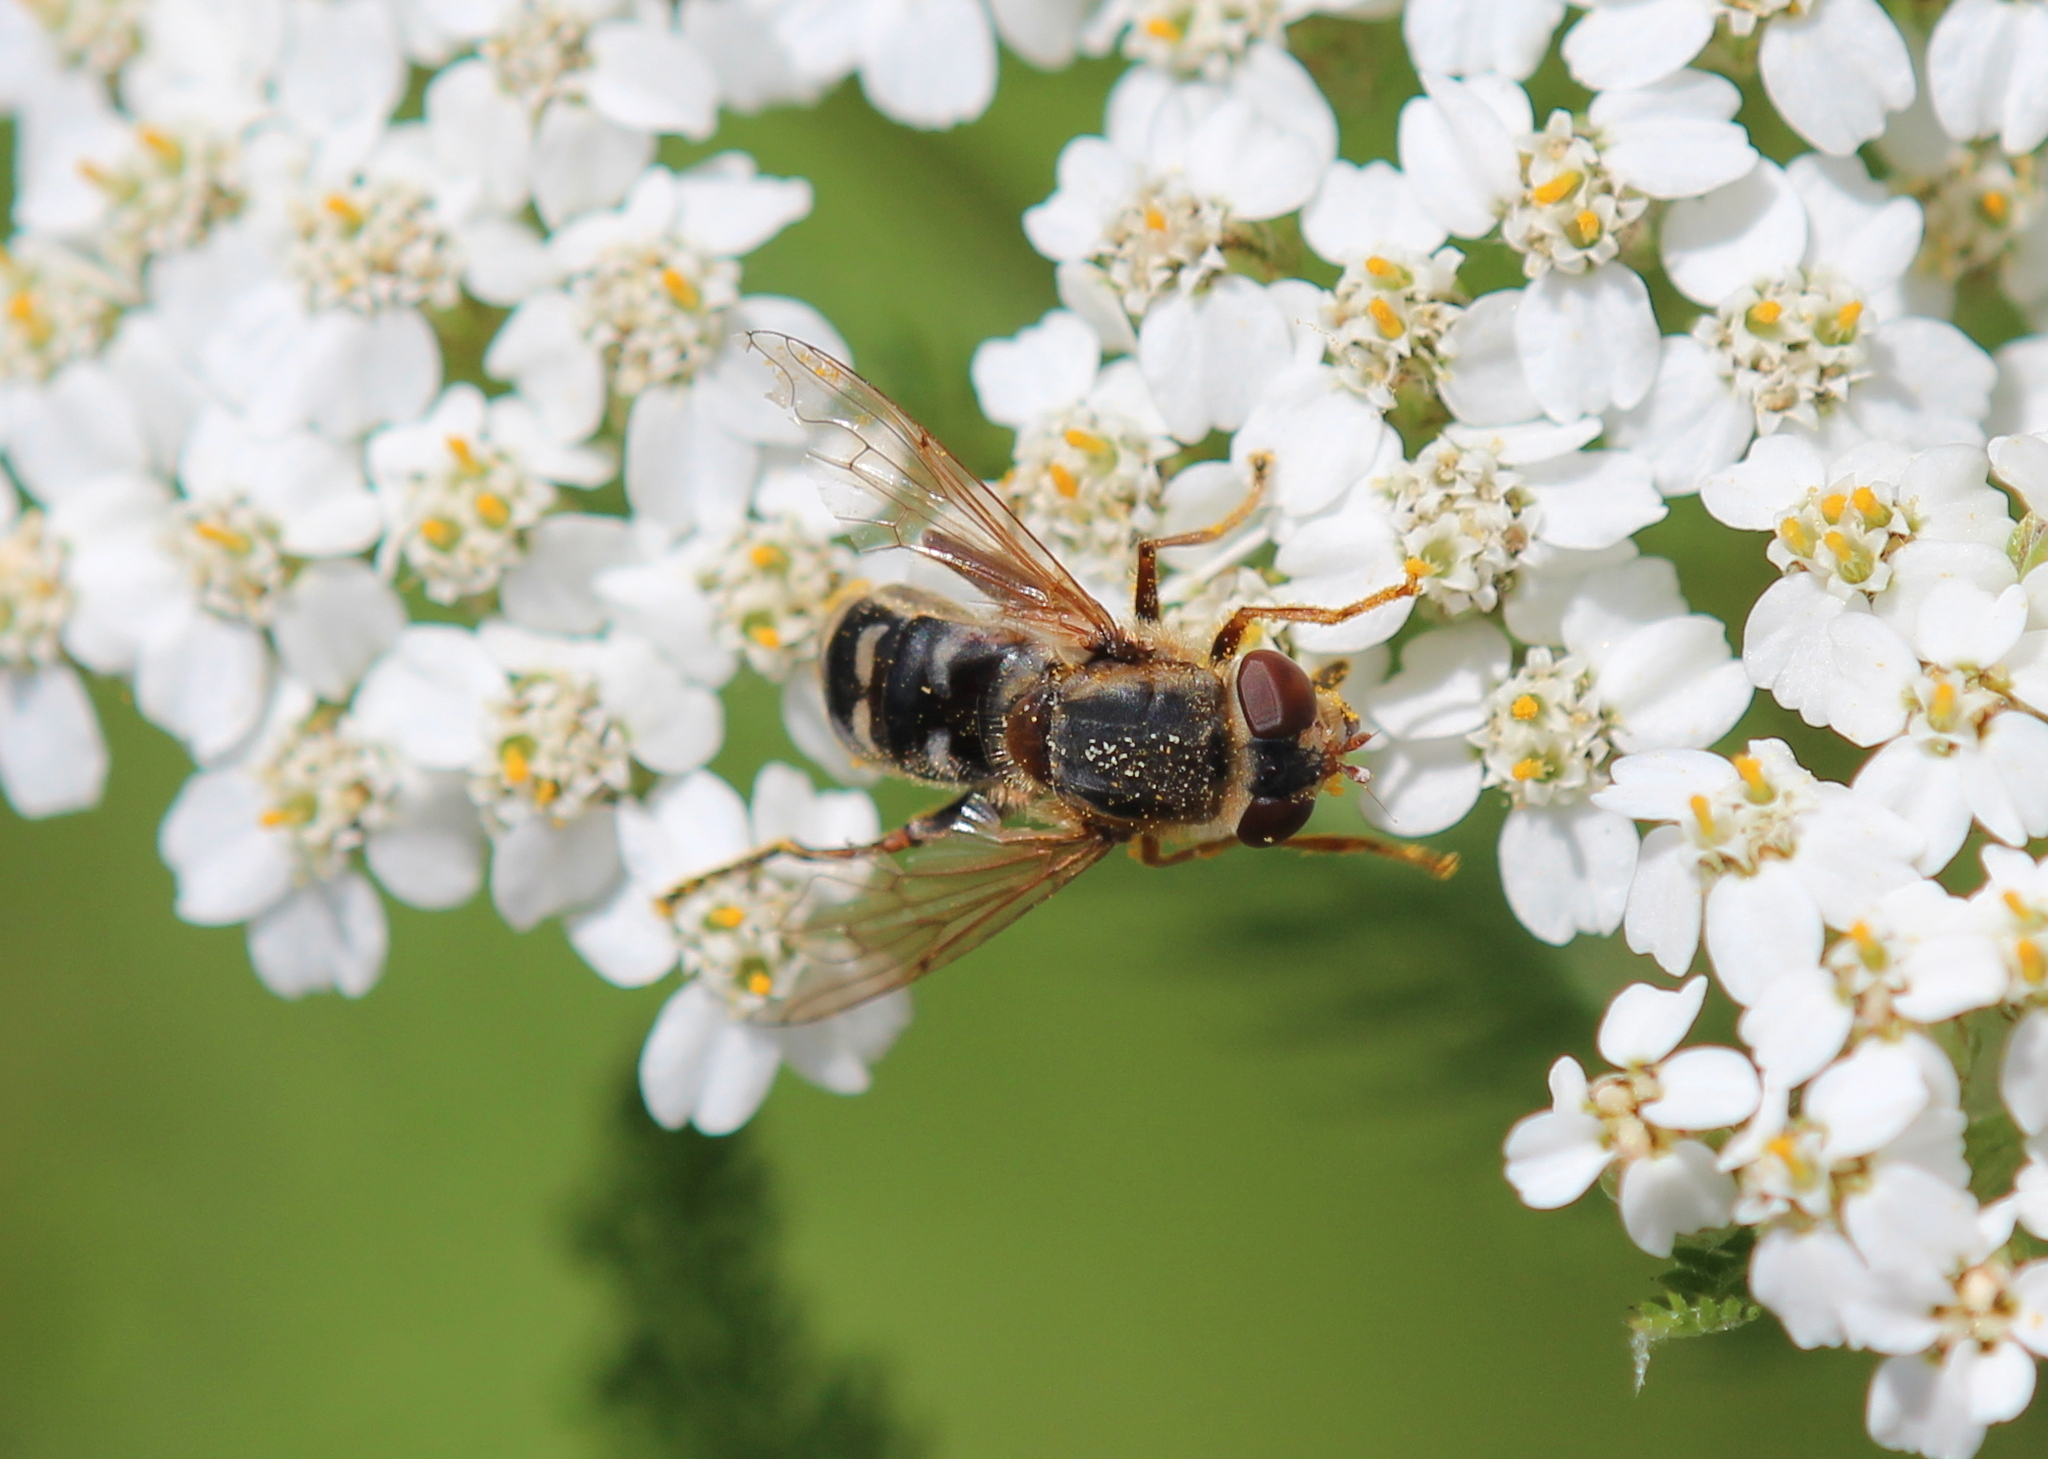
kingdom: Animalia
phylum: Arthropoda
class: Insecta
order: Diptera
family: Syrphidae
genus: Anasimyia
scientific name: Anasimyia bilinearis
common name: Two-lined swamp fly
